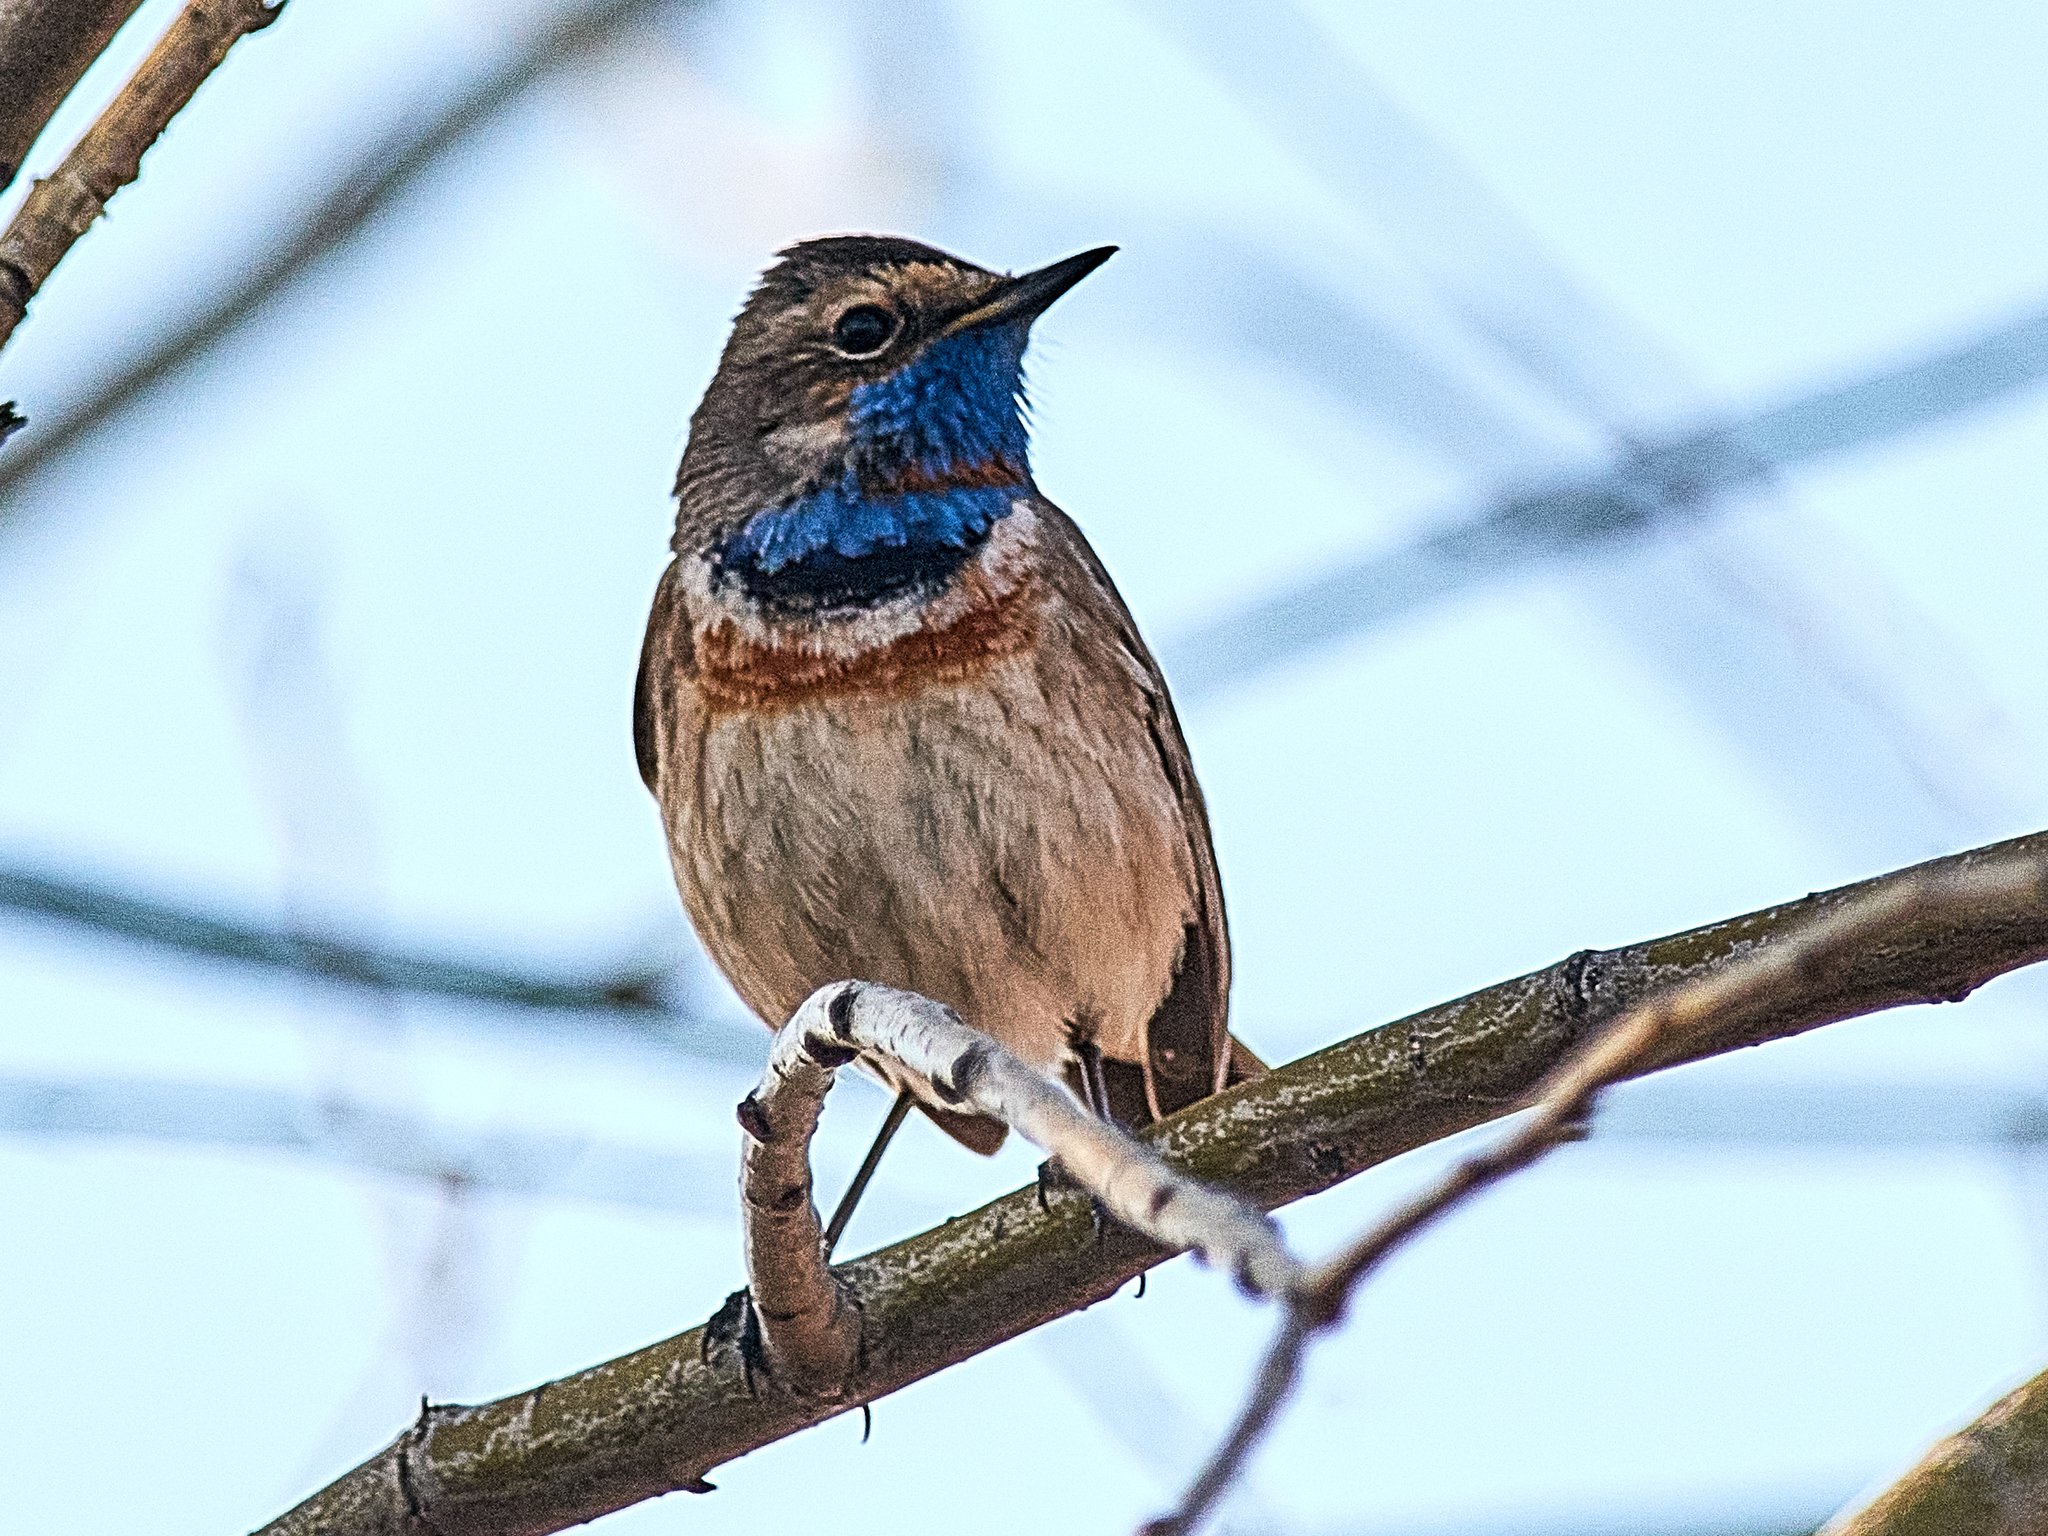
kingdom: Animalia
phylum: Chordata
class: Aves
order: Passeriformes
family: Muscicapidae
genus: Luscinia
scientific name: Luscinia svecica
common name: Bluethroat
